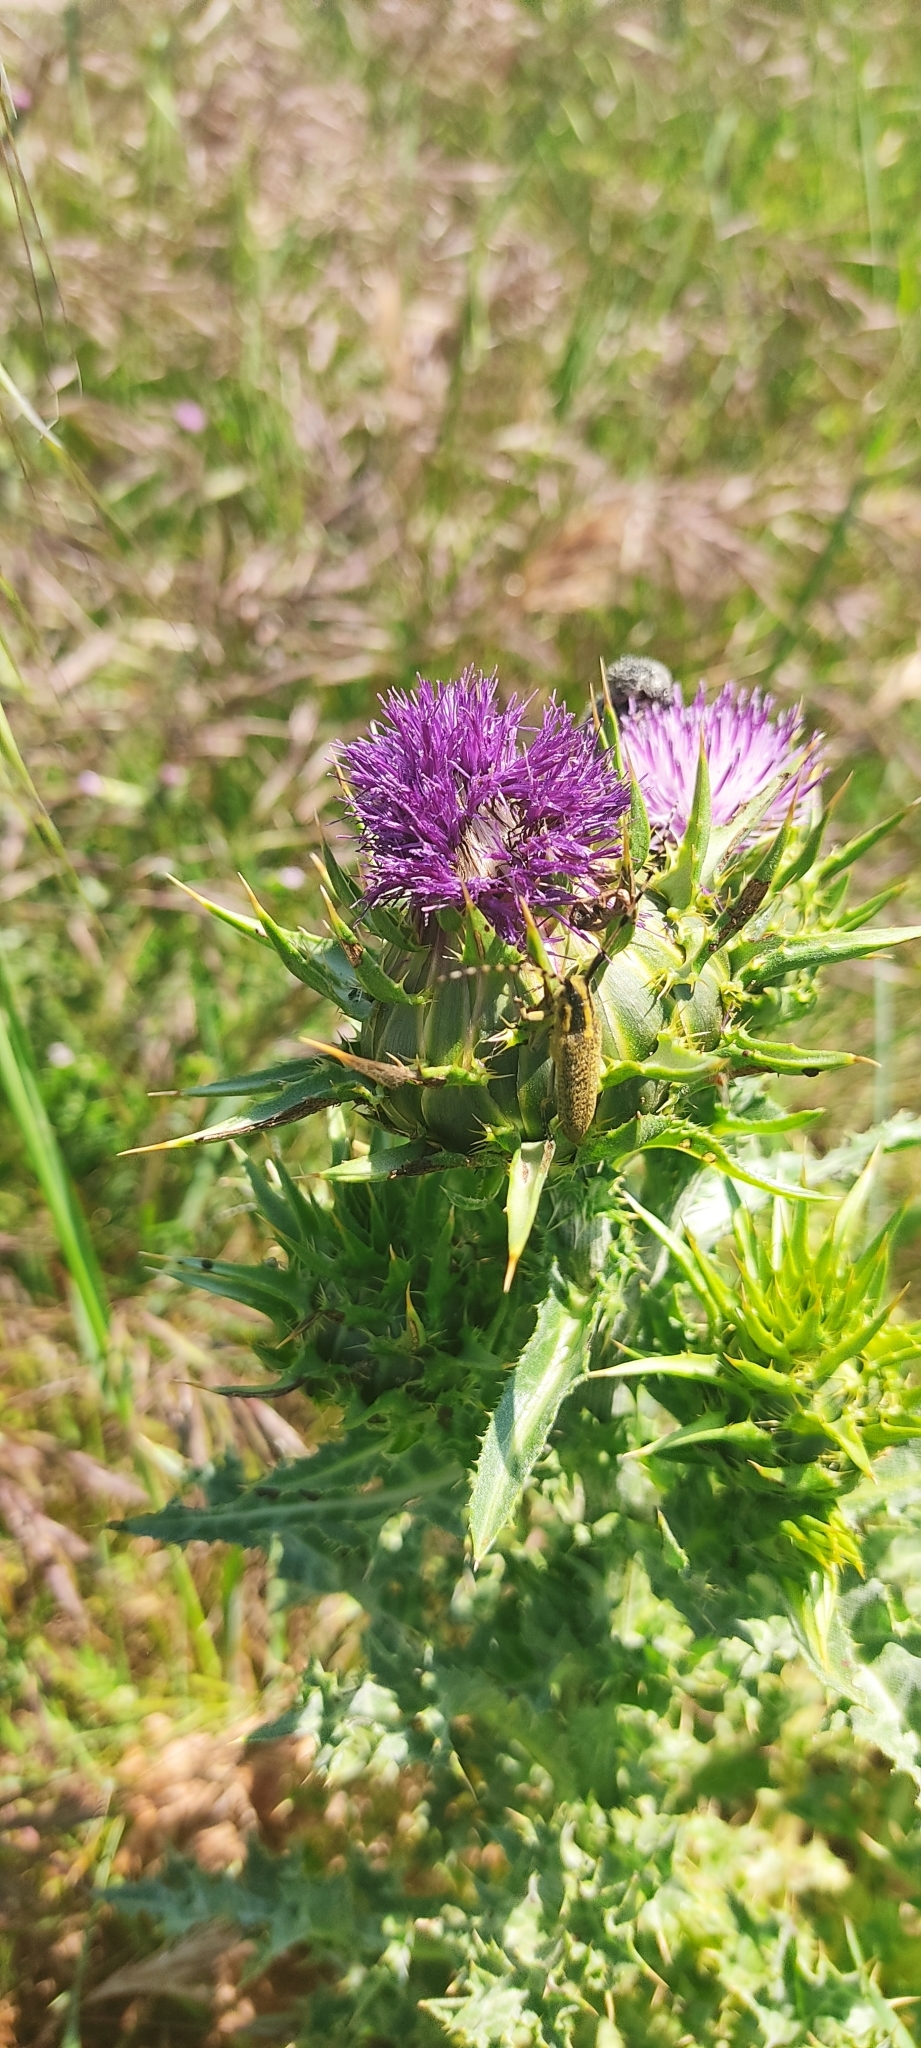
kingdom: Animalia
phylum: Arthropoda
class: Insecta
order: Coleoptera
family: Cerambycidae
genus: Agapanthia
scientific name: Agapanthia dahlii
